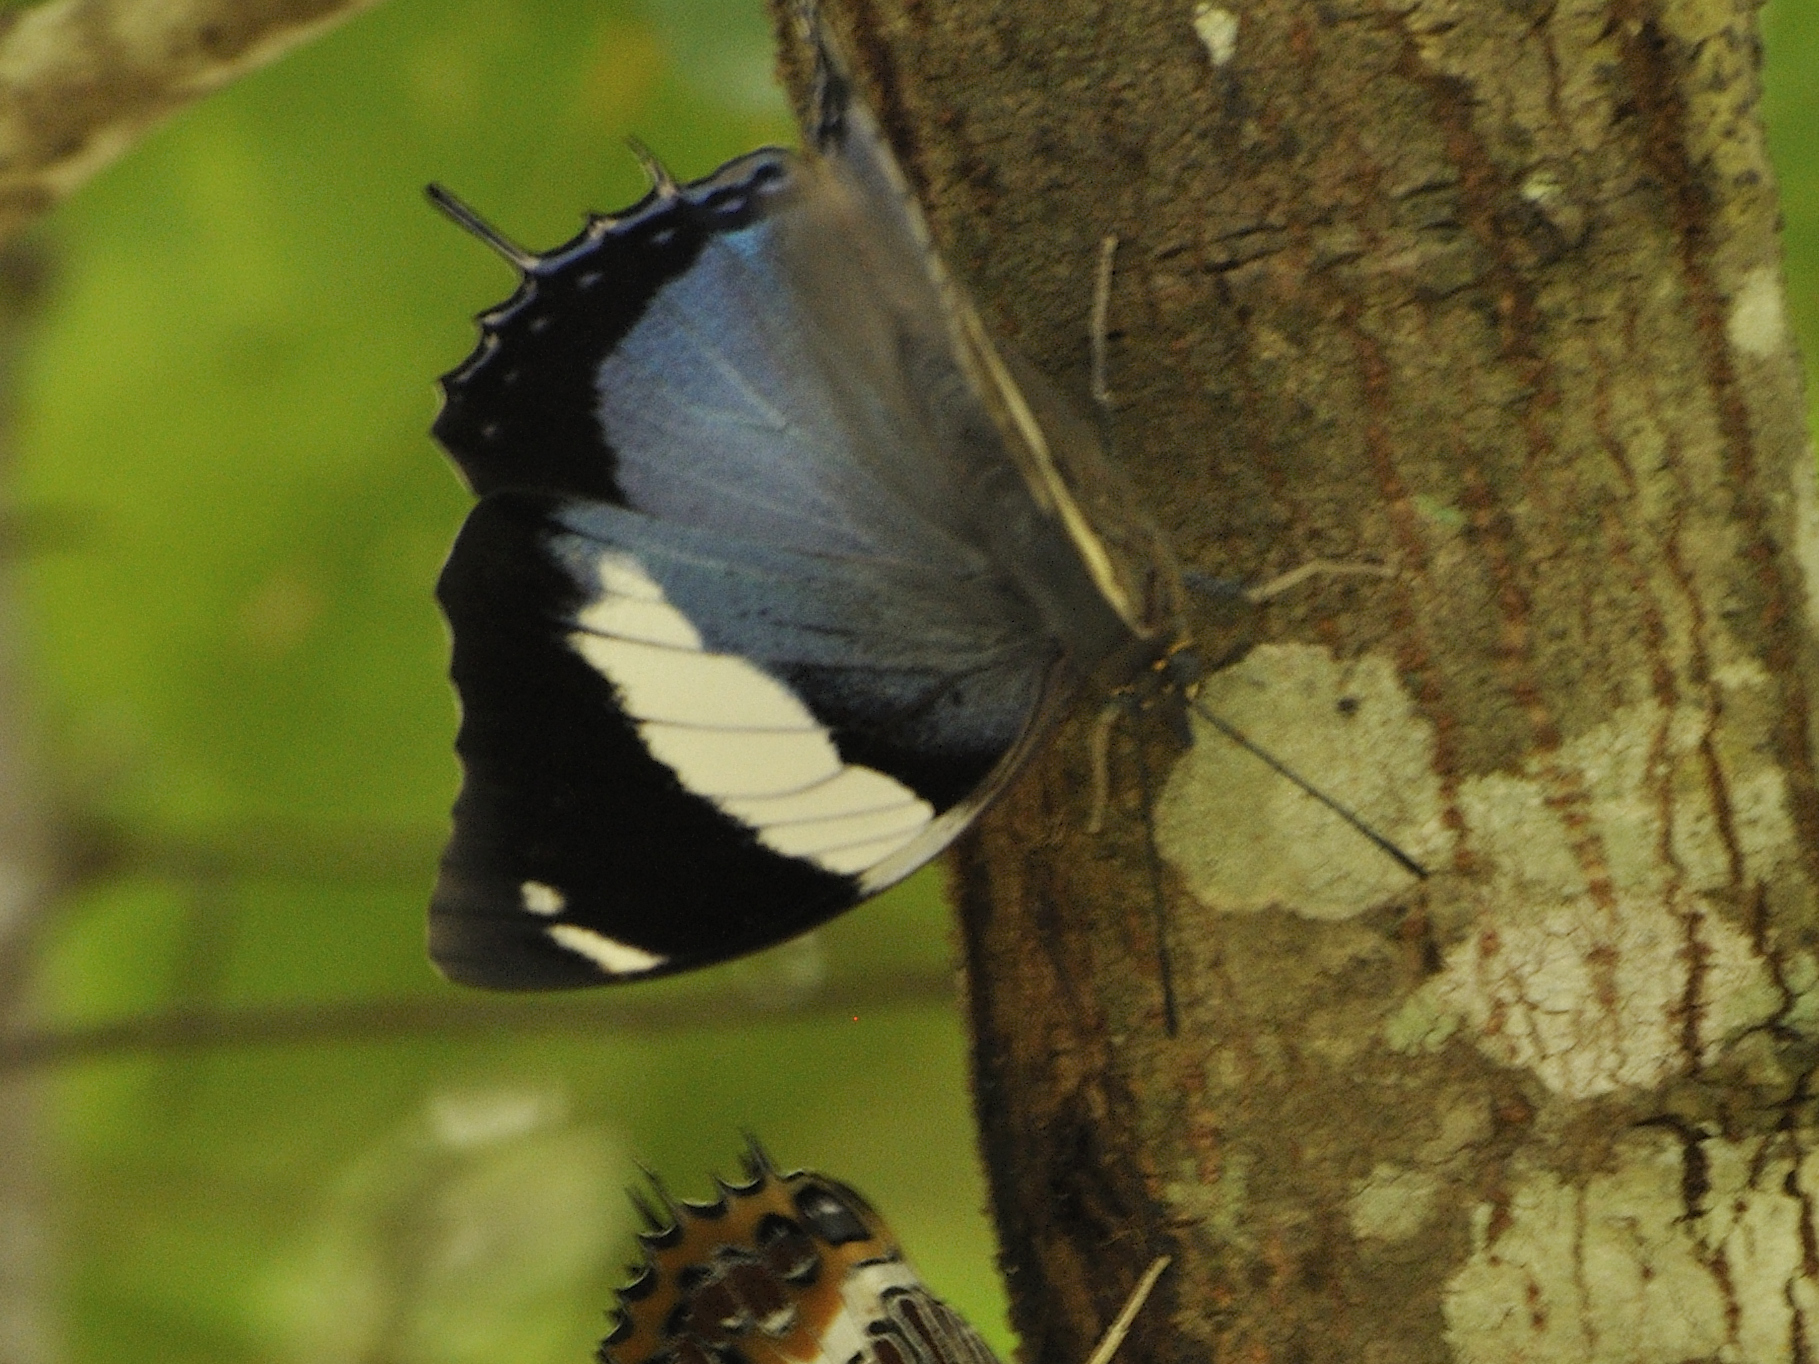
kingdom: Animalia
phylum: Arthropoda
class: Insecta
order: Lepidoptera
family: Nymphalidae
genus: Charaxes
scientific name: Charaxes bohemani
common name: Large blue charaxes
